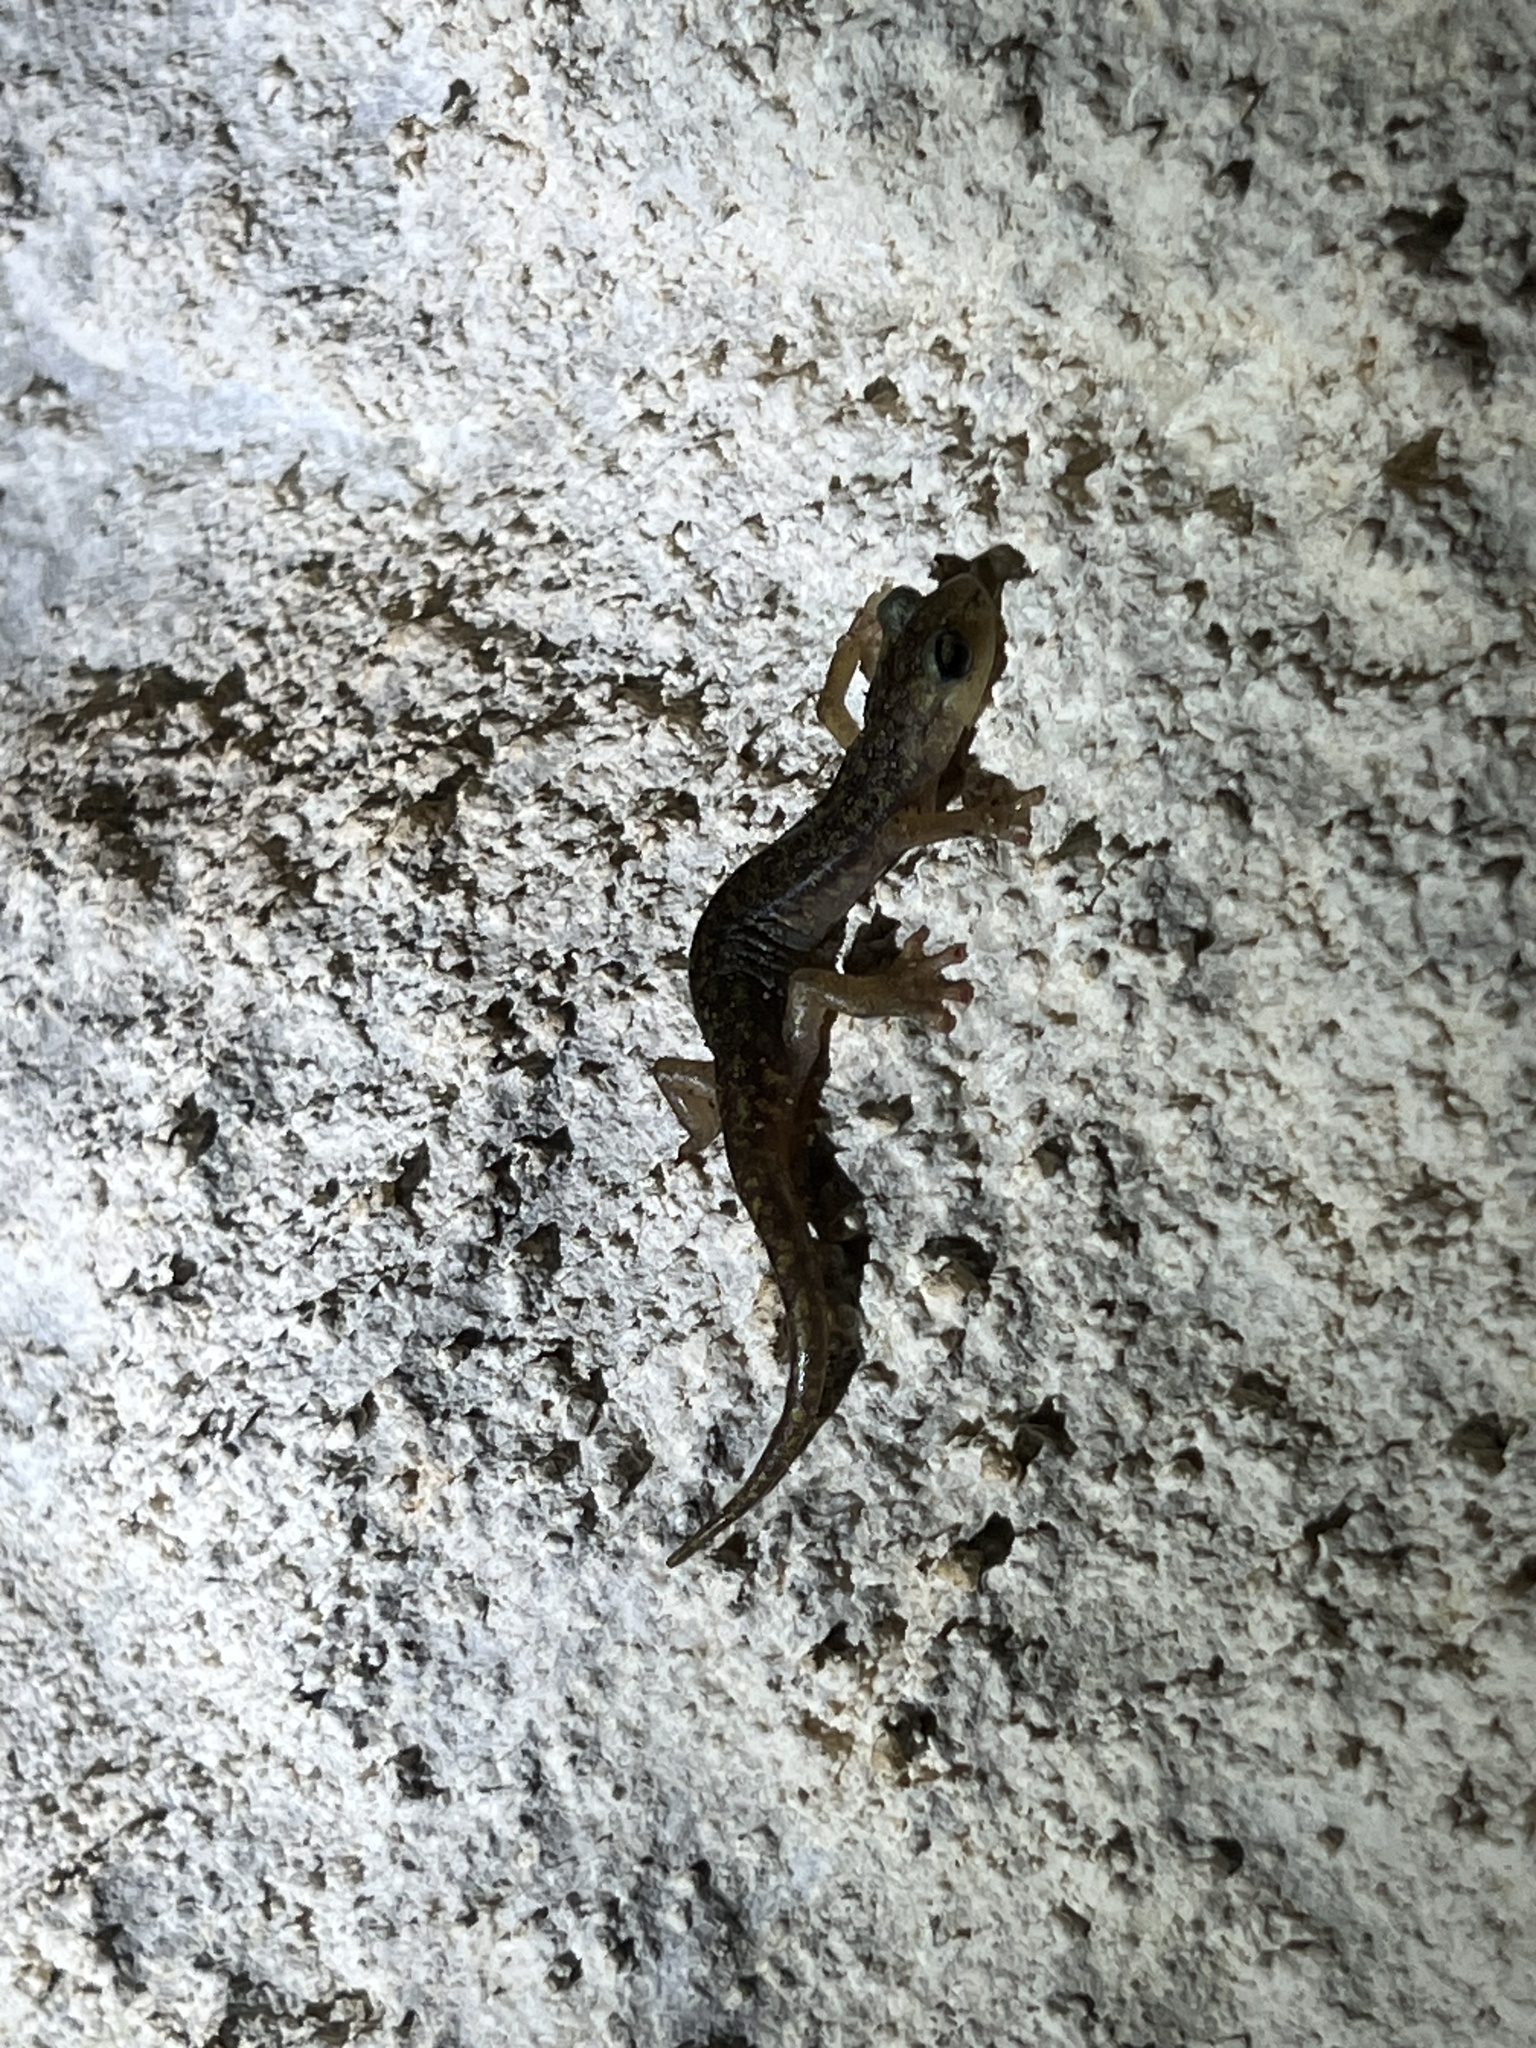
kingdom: Animalia
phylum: Chordata
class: Amphibia
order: Caudata
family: Plethodontidae
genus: Speleomantes
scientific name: Speleomantes imperialis
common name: Imperial cave salamander
